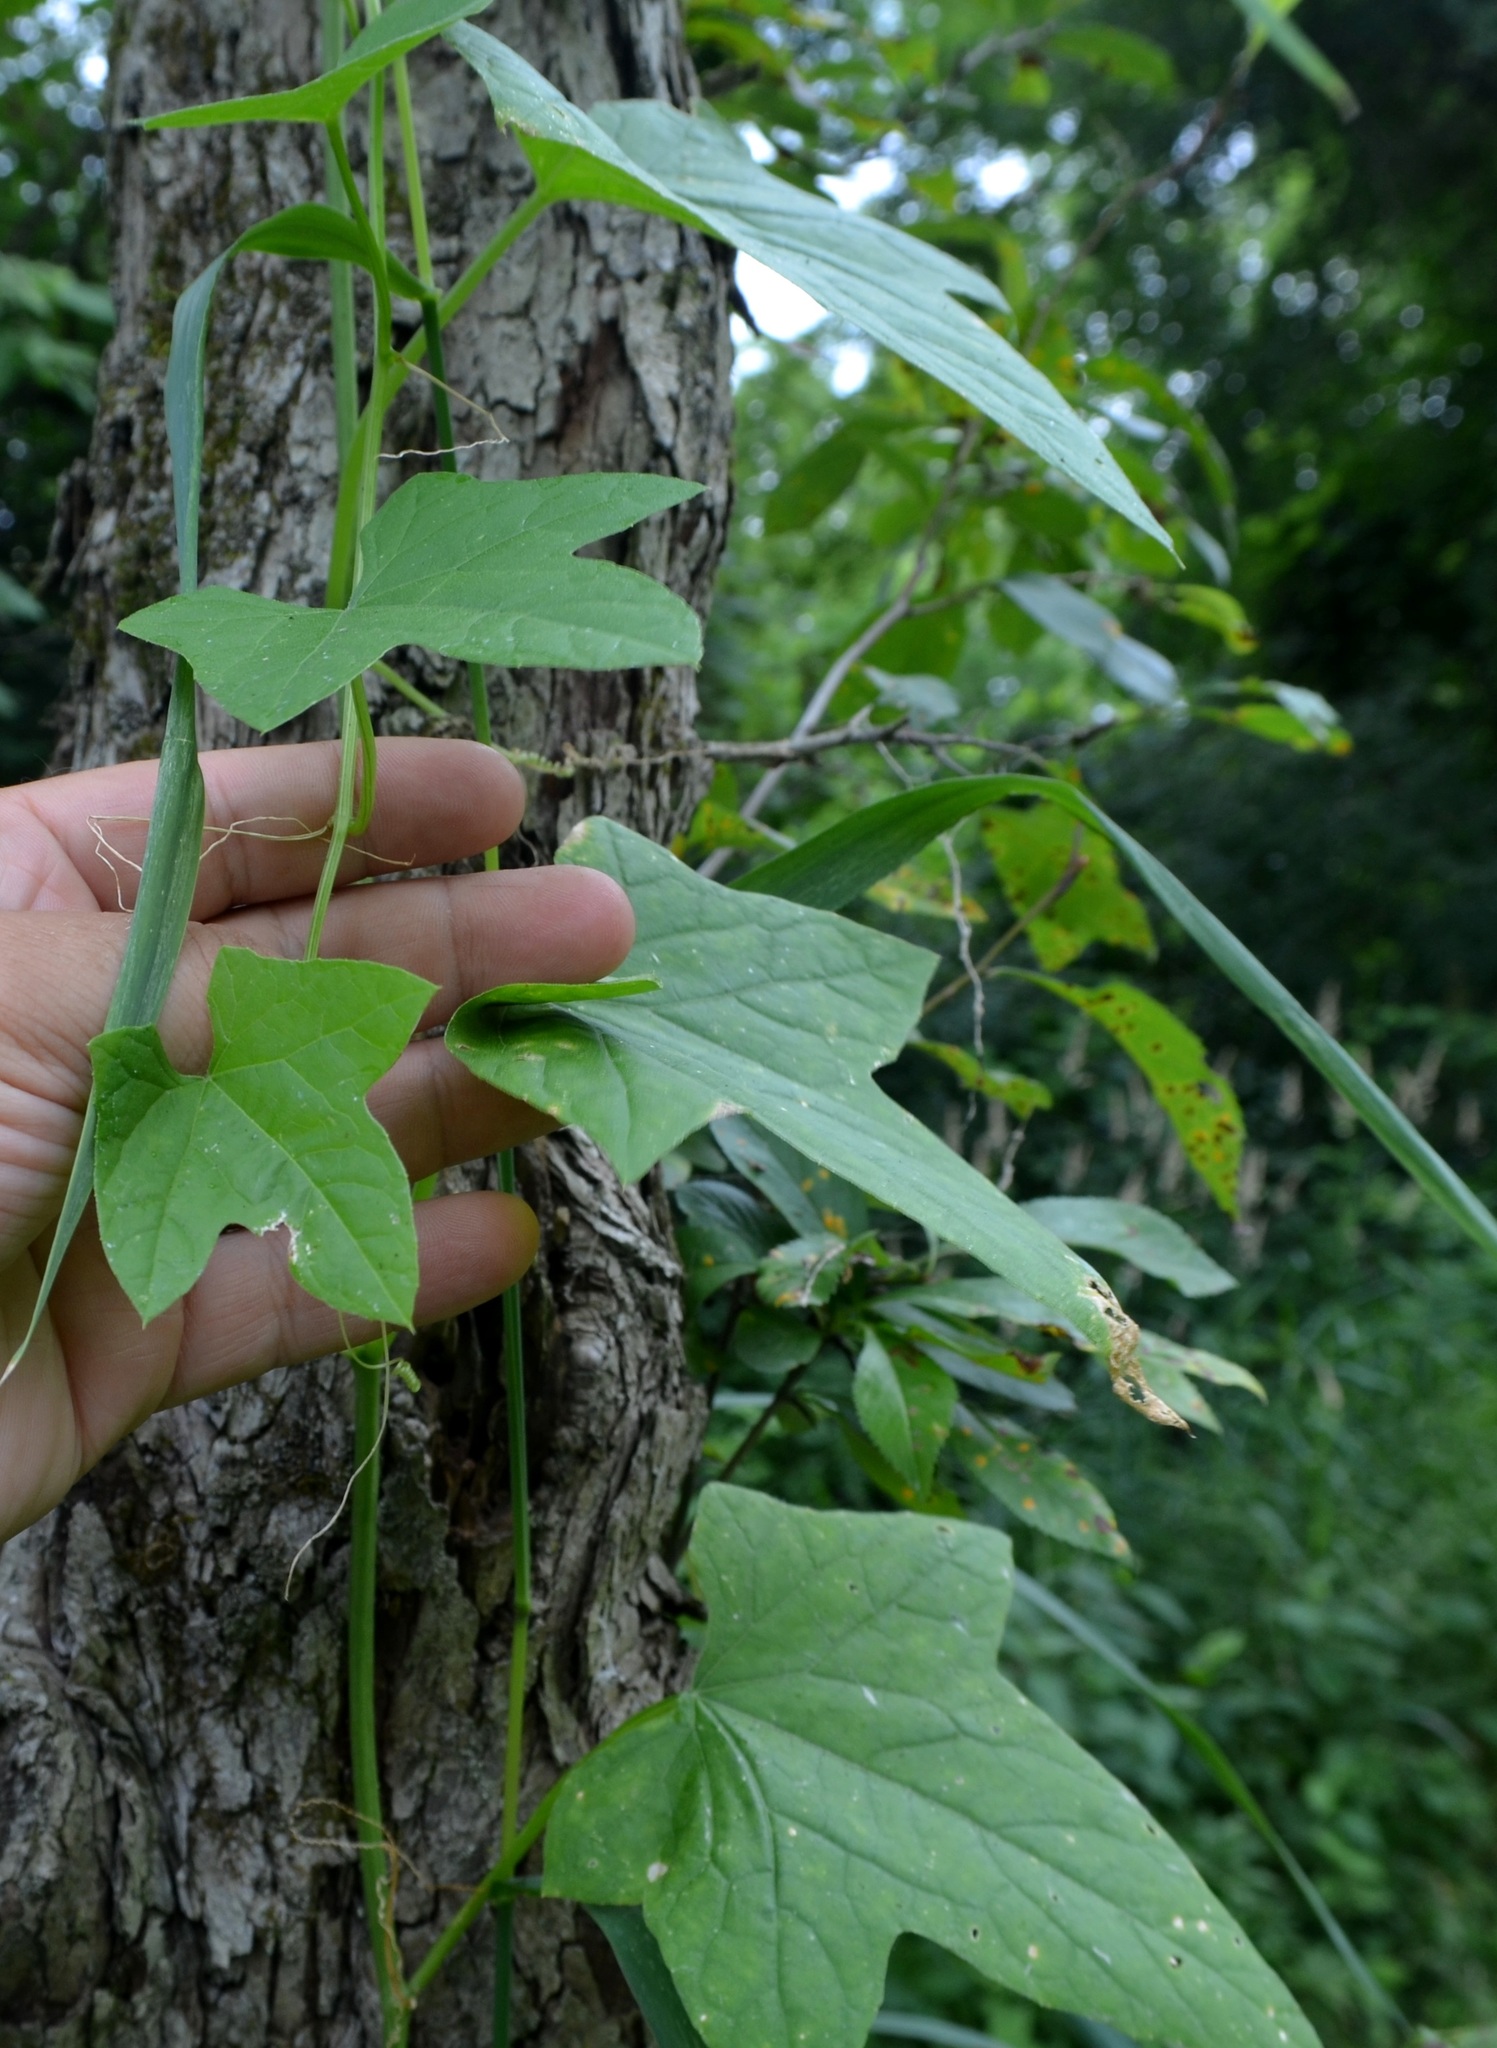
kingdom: Plantae
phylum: Tracheophyta
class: Magnoliopsida
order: Cucurbitales
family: Cucurbitaceae
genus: Echinocystis
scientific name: Echinocystis lobata
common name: Wild cucumber
